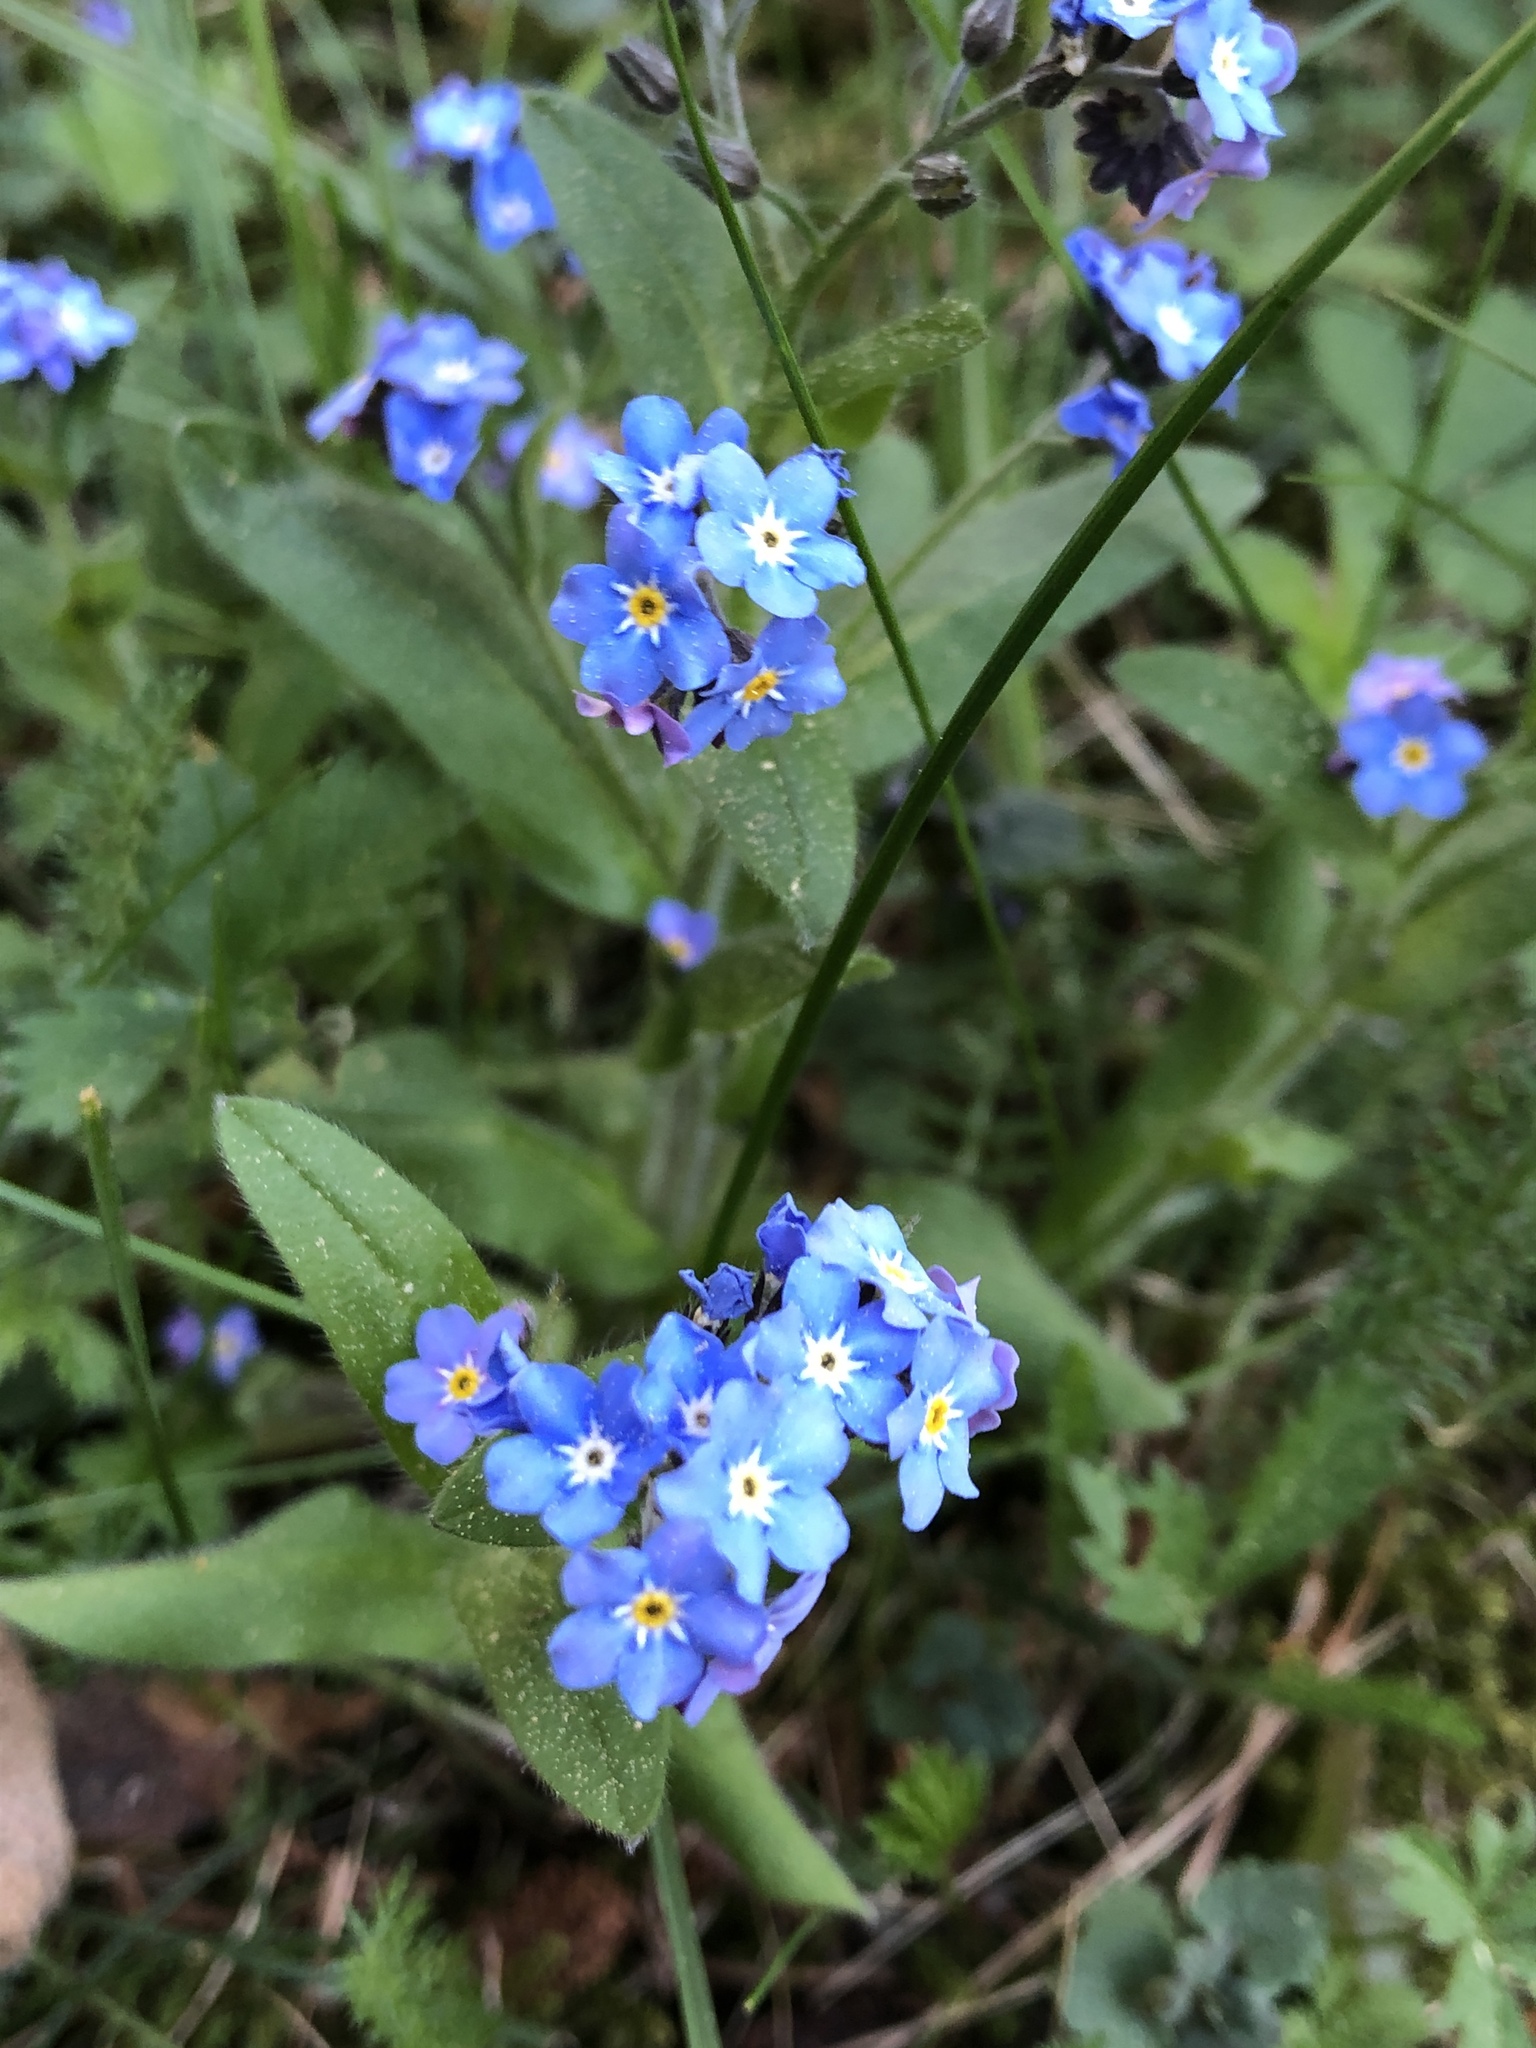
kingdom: Plantae
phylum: Tracheophyta
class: Magnoliopsida
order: Boraginales
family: Boraginaceae
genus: Myosotis
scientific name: Myosotis sylvatica
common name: Wood forget-me-not
